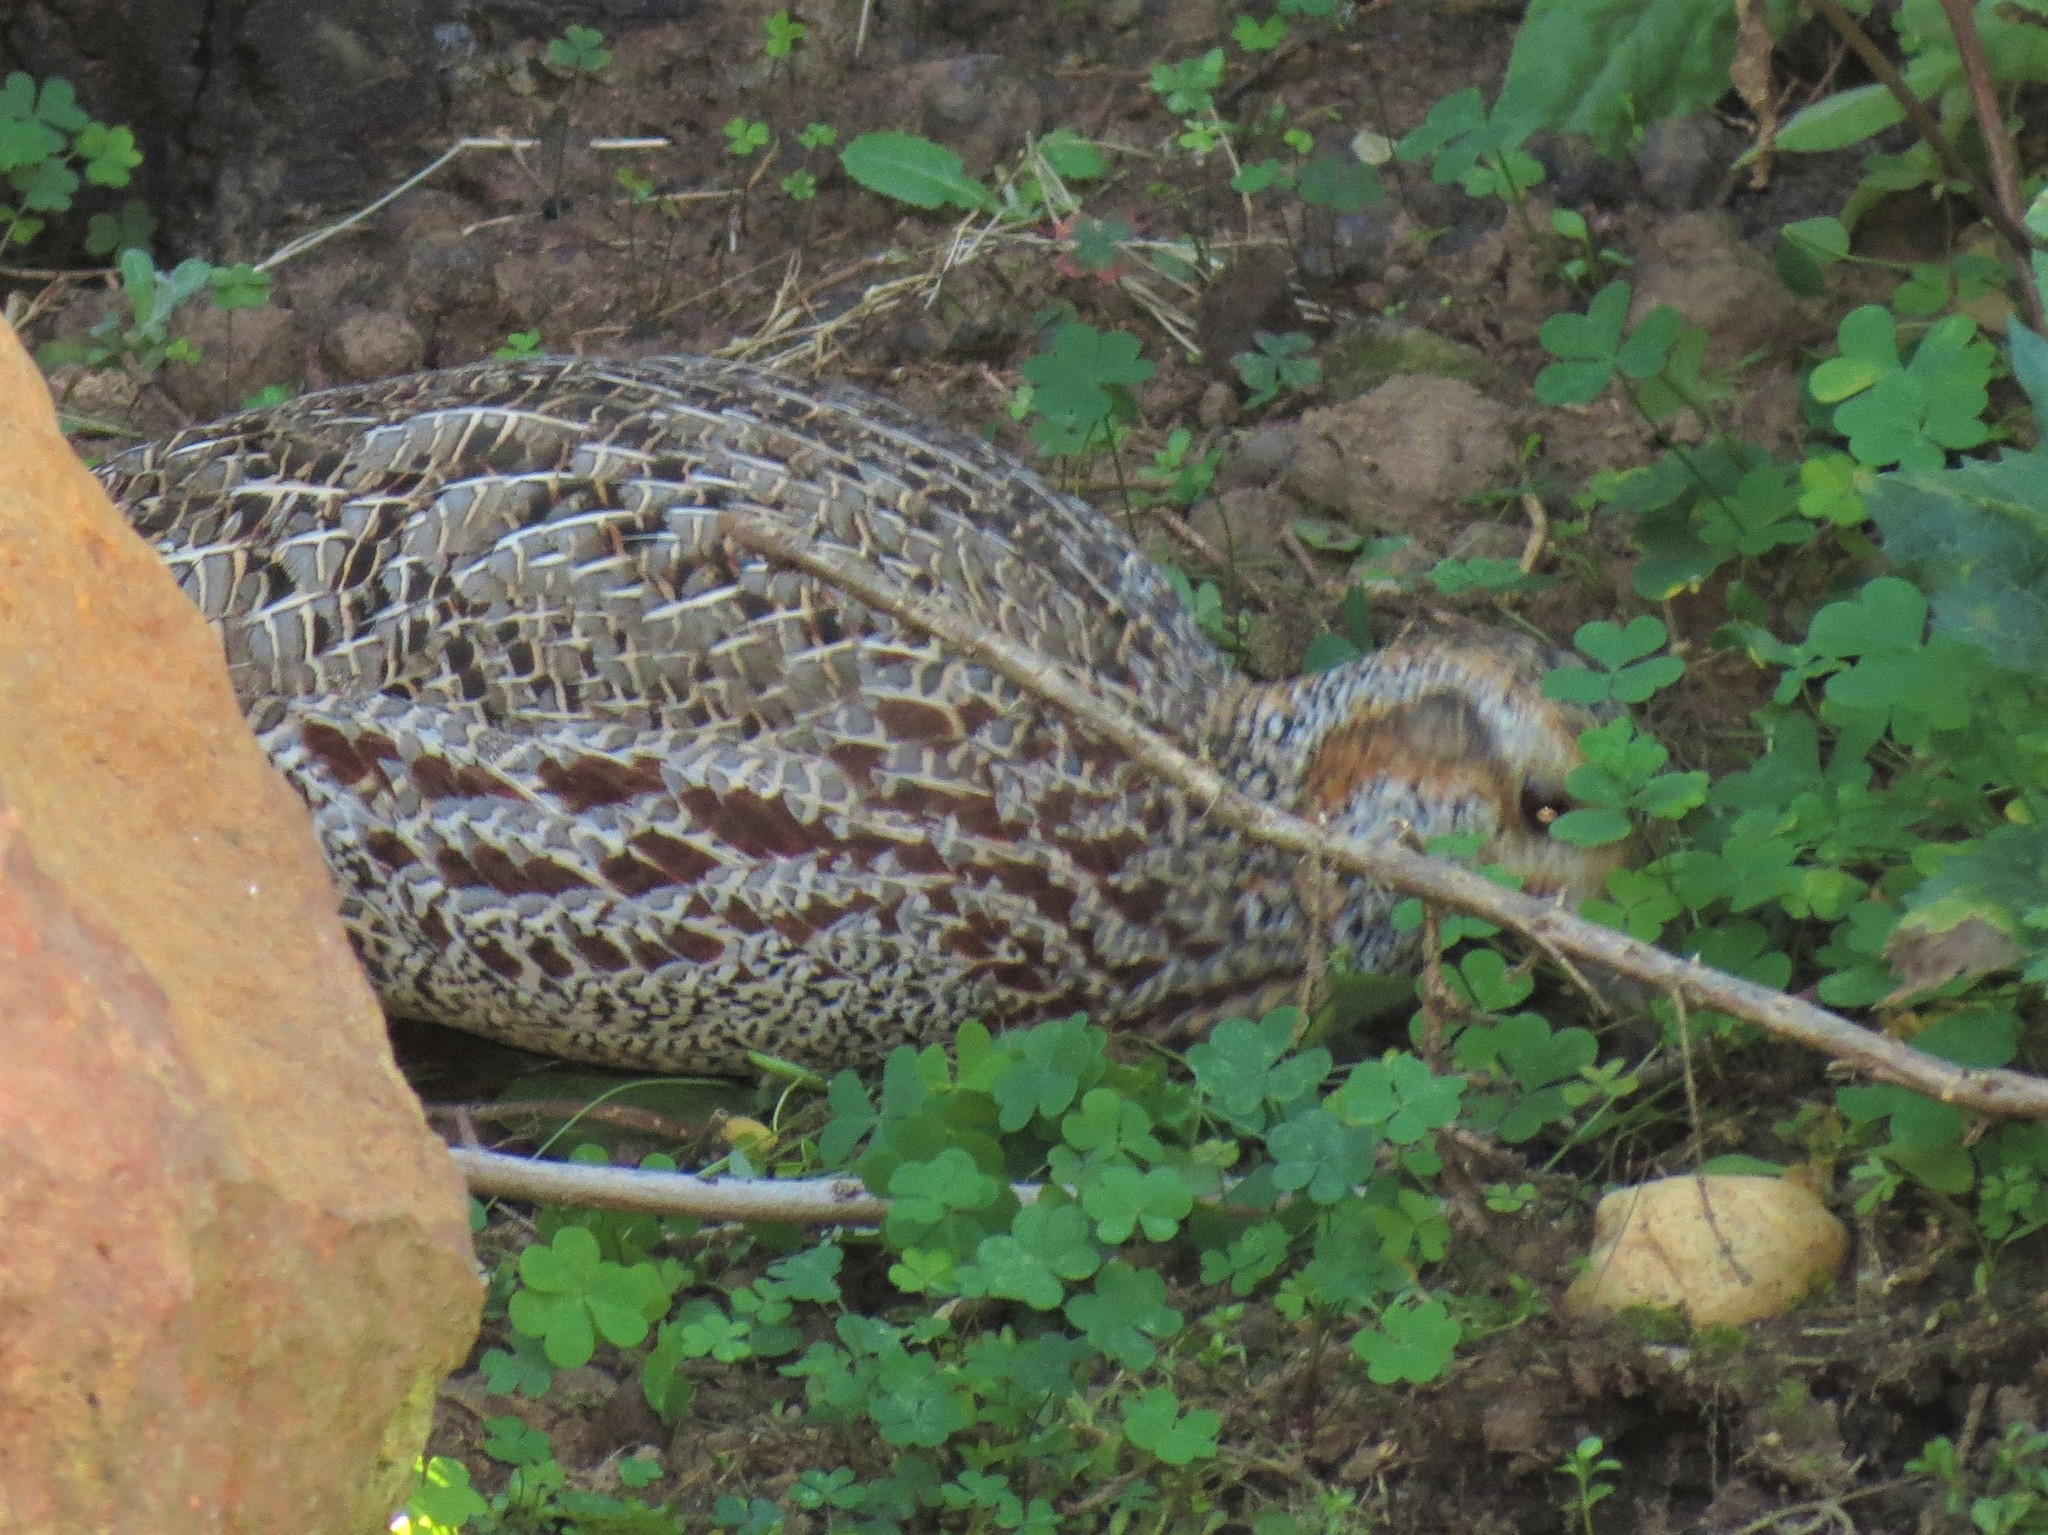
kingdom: Animalia
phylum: Chordata
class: Aves
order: Galliformes
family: Phasianidae
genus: Scleroptila
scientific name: Scleroptila afra
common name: Grey-winged francolin
